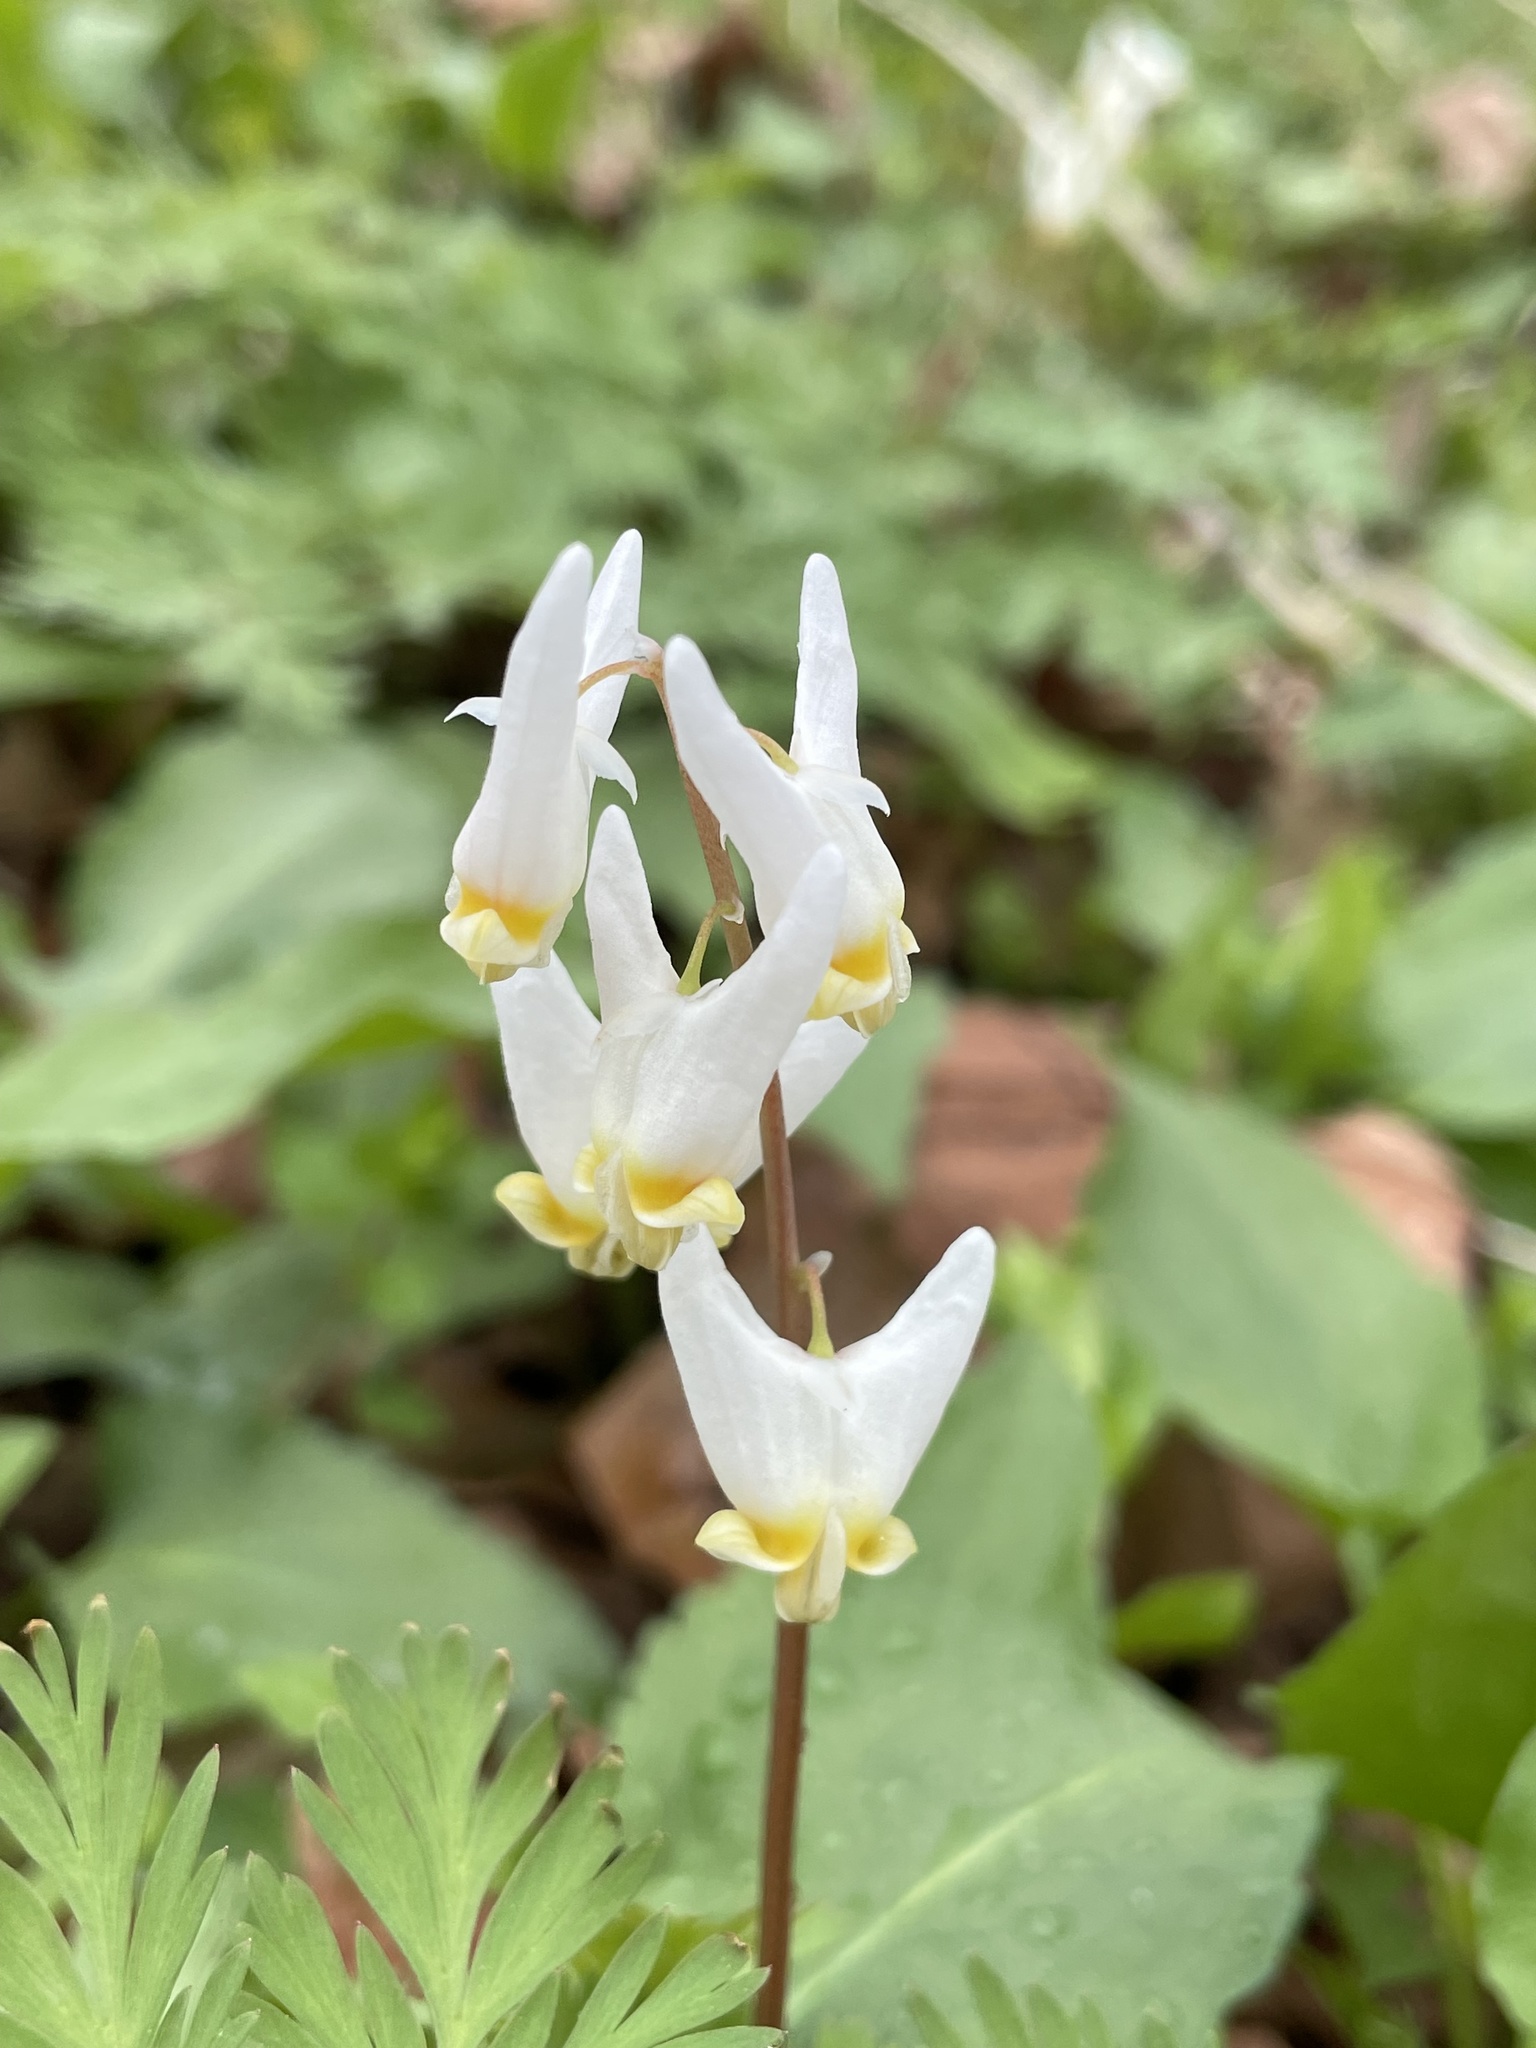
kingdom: Plantae
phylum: Tracheophyta
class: Magnoliopsida
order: Ranunculales
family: Papaveraceae
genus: Dicentra
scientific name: Dicentra cucullaria
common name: Dutchman's breeches
